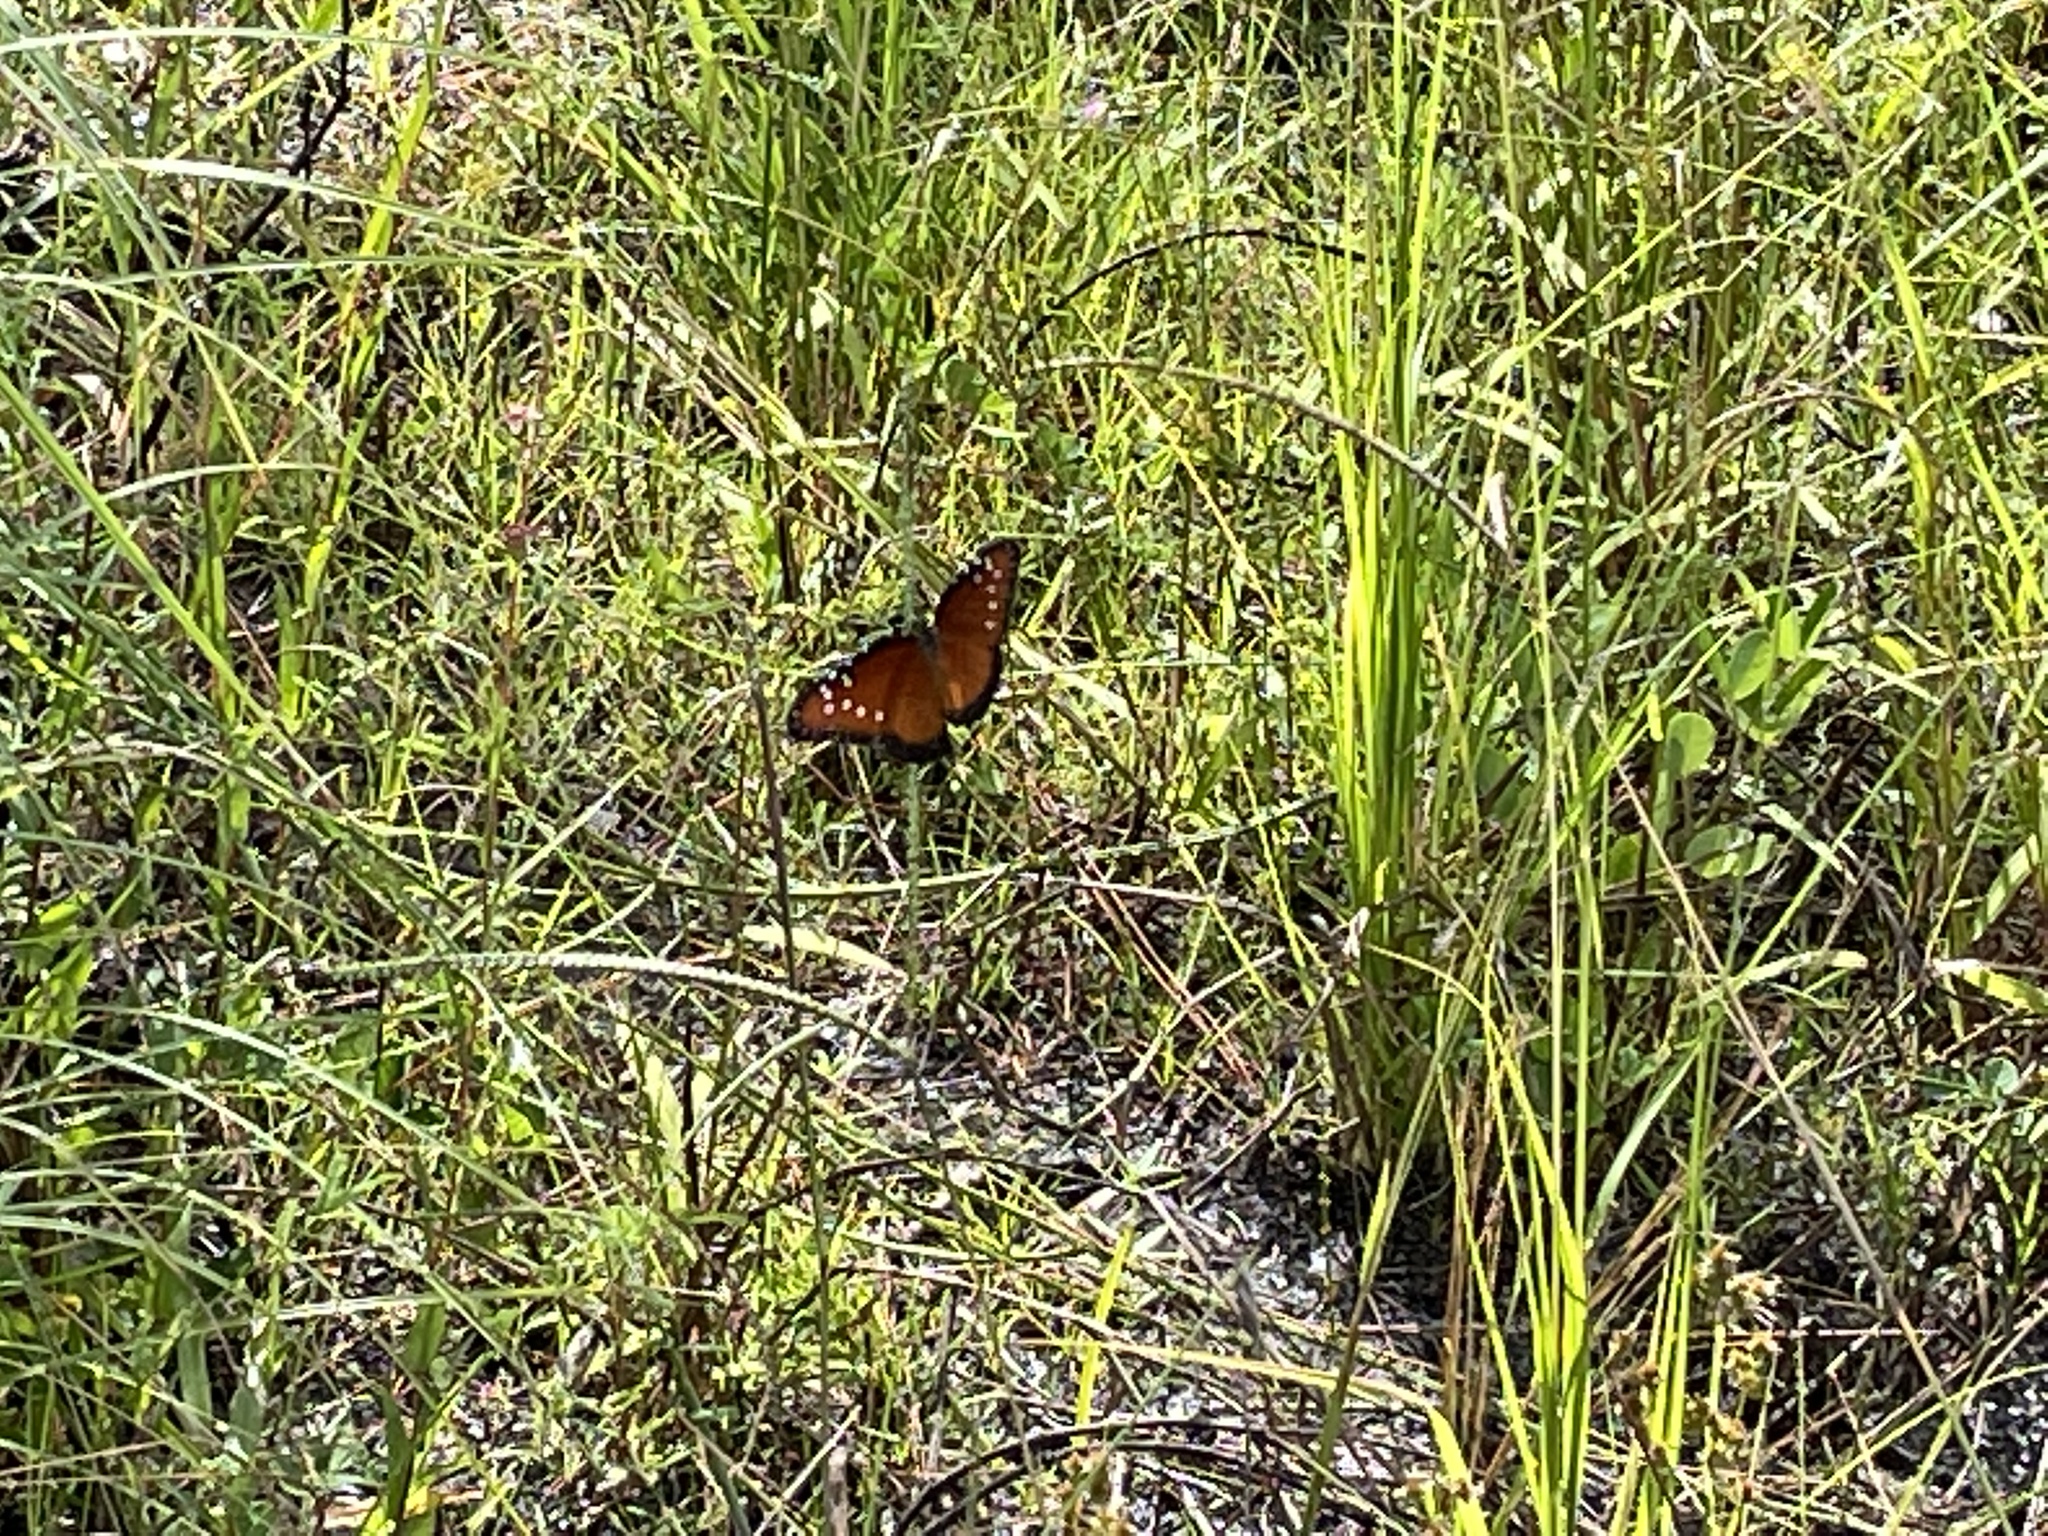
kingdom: Animalia
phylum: Arthropoda
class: Insecta
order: Lepidoptera
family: Nymphalidae
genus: Danaus
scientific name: Danaus gilippus
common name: Queen
